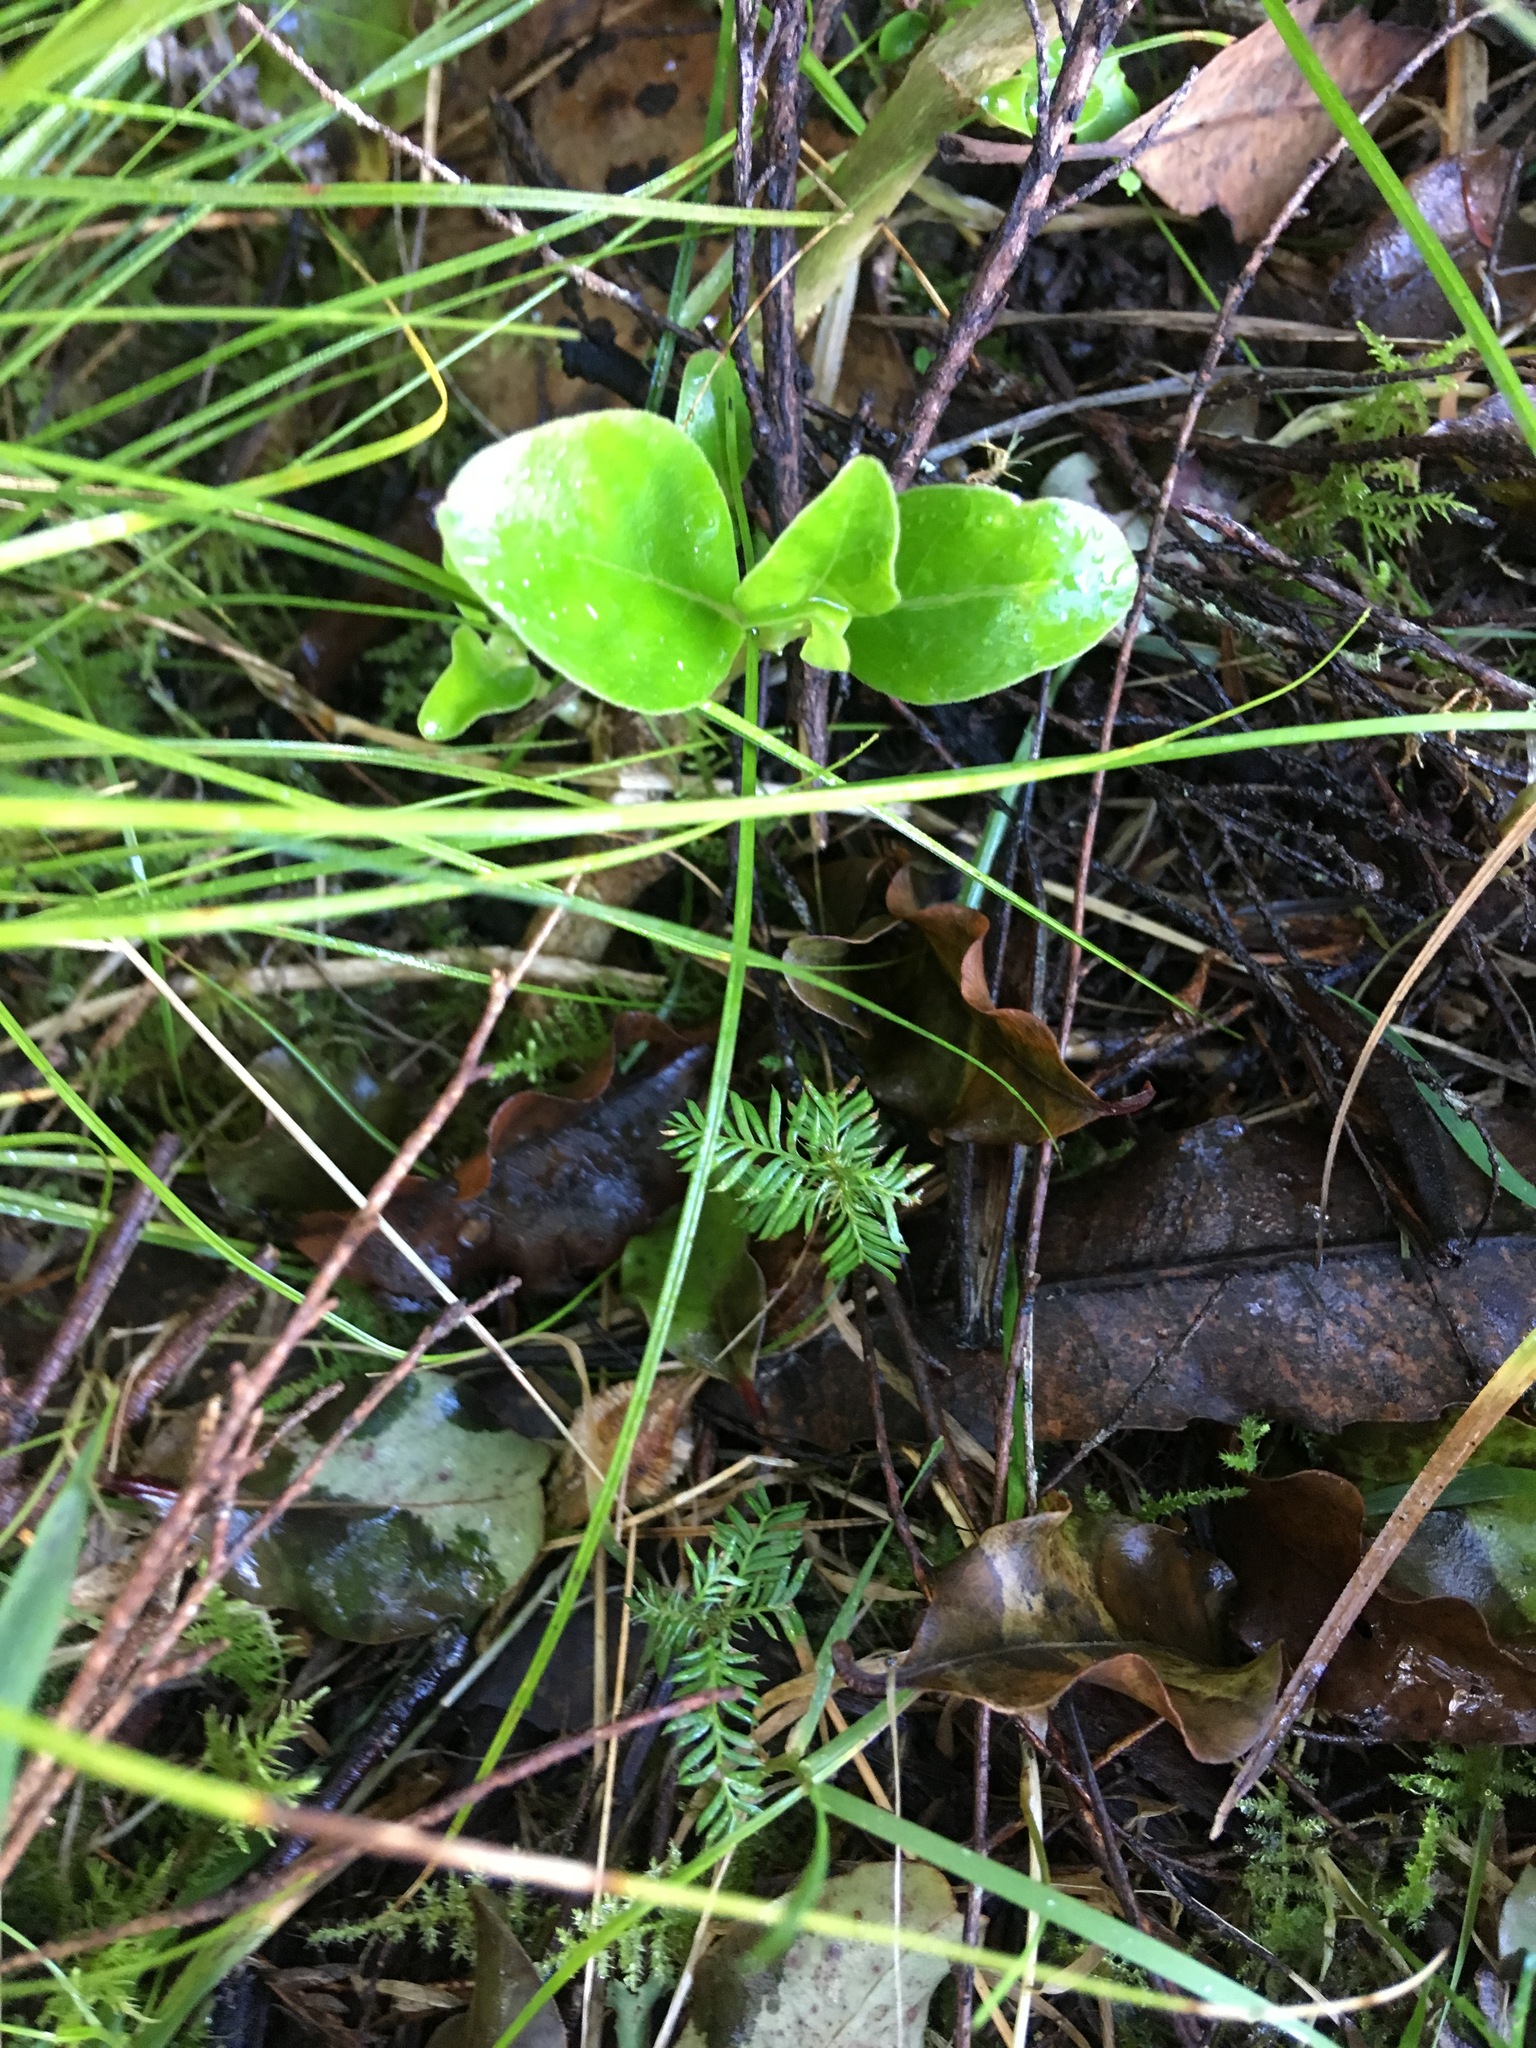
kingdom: Plantae
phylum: Tracheophyta
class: Pinopsida
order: Pinales
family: Podocarpaceae
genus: Dacrycarpus
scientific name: Dacrycarpus dacrydioides
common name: White pine
